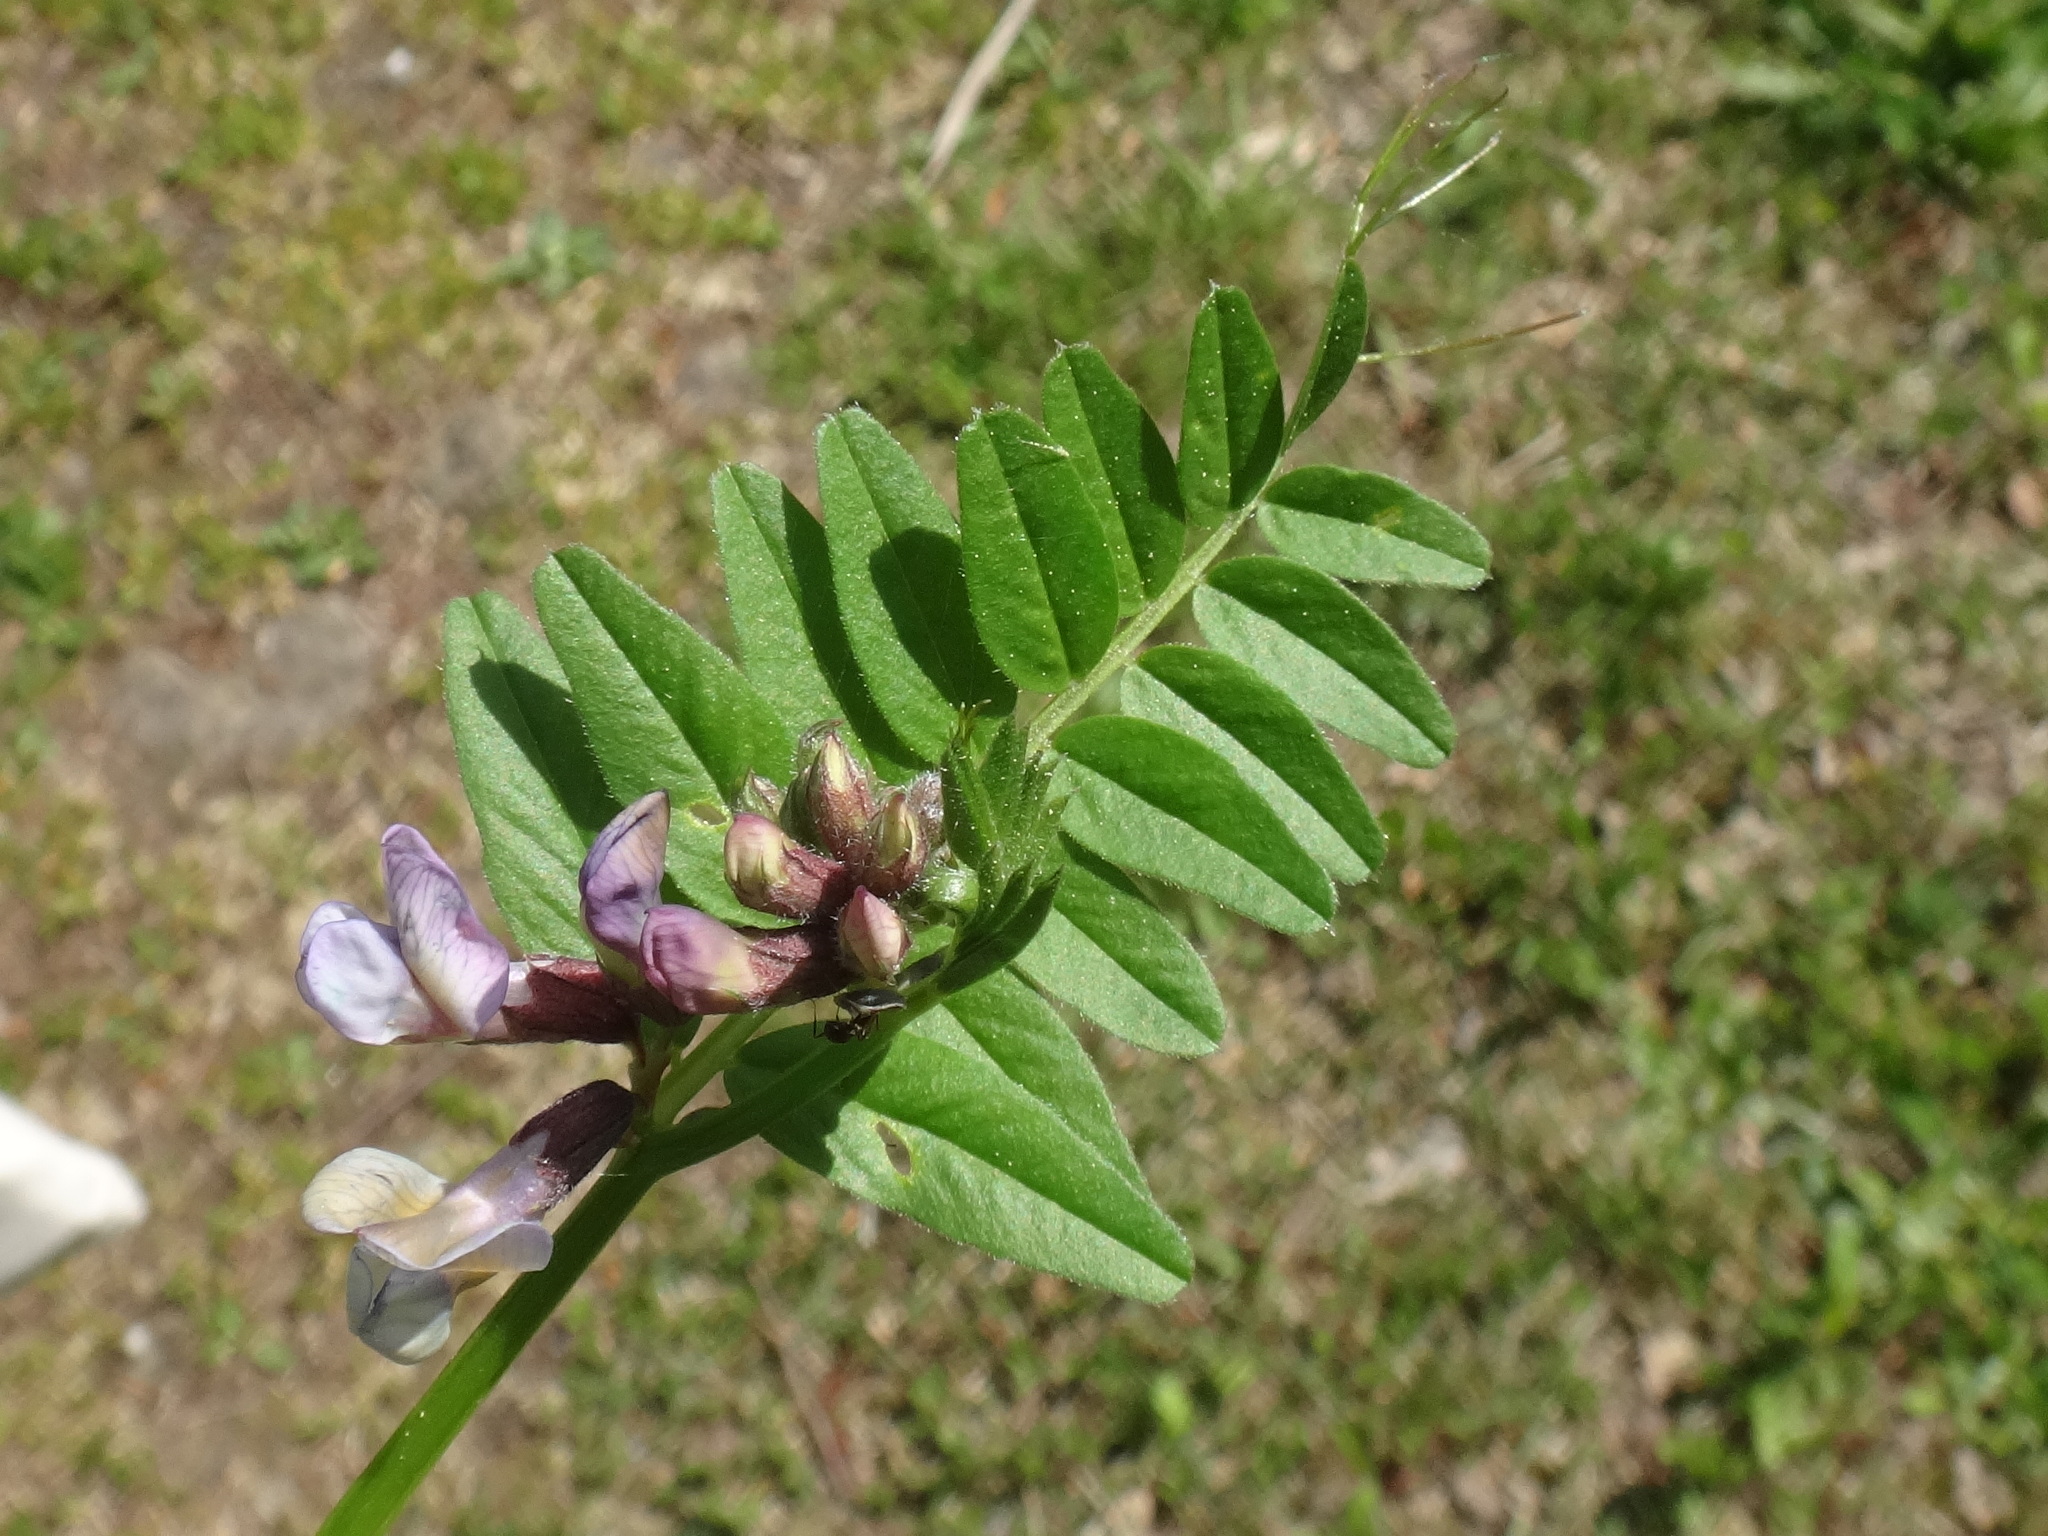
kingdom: Plantae
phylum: Tracheophyta
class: Magnoliopsida
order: Fabales
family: Fabaceae
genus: Vicia
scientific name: Vicia sepium
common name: Bush vetch
